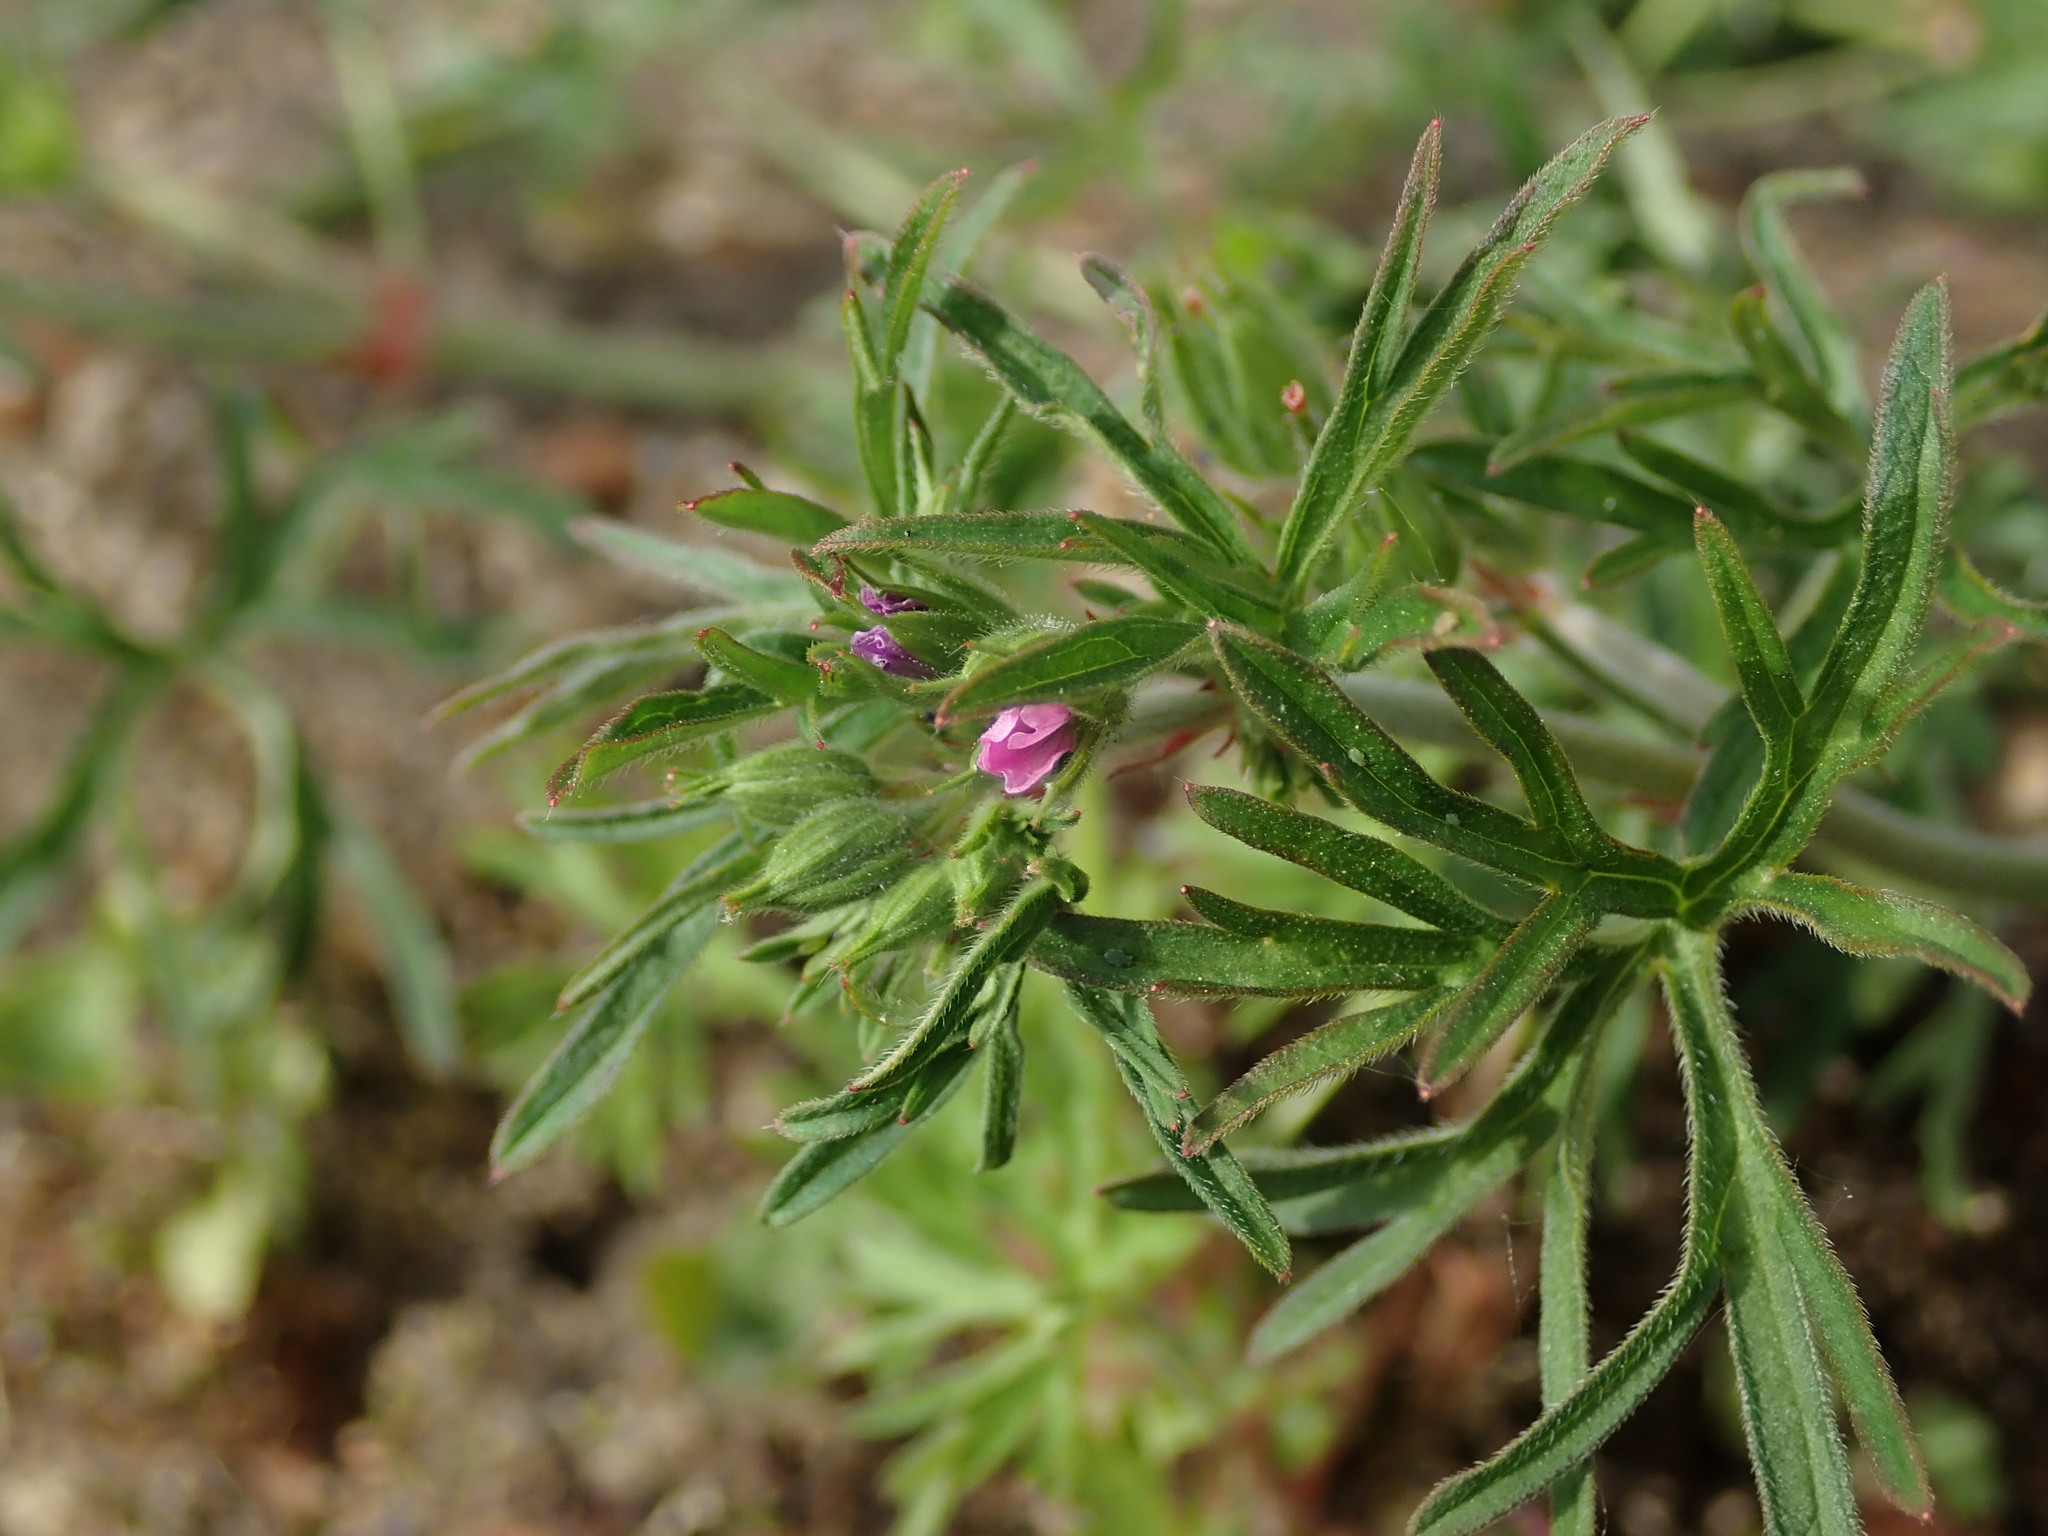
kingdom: Plantae
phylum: Tracheophyta
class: Magnoliopsida
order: Geraniales
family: Geraniaceae
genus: Geranium
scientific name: Geranium dissectum
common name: Cut-leaved crane's-bill
